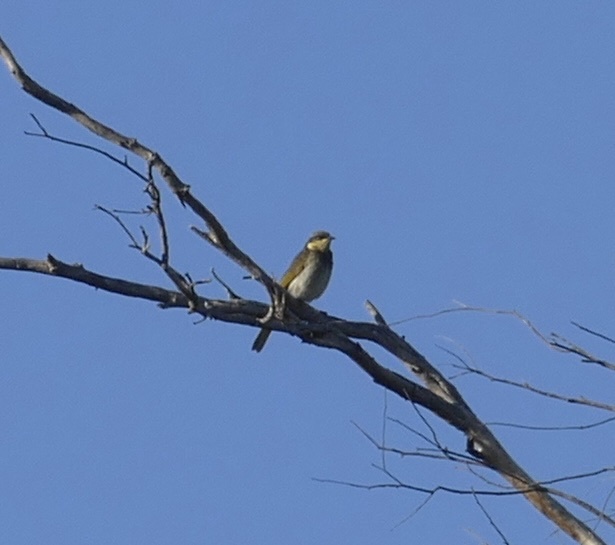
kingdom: Animalia
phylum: Chordata
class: Aves
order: Passeriformes
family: Meliphagidae
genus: Gavicalis
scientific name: Gavicalis fasciogularis
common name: Mangrove honeyeater
